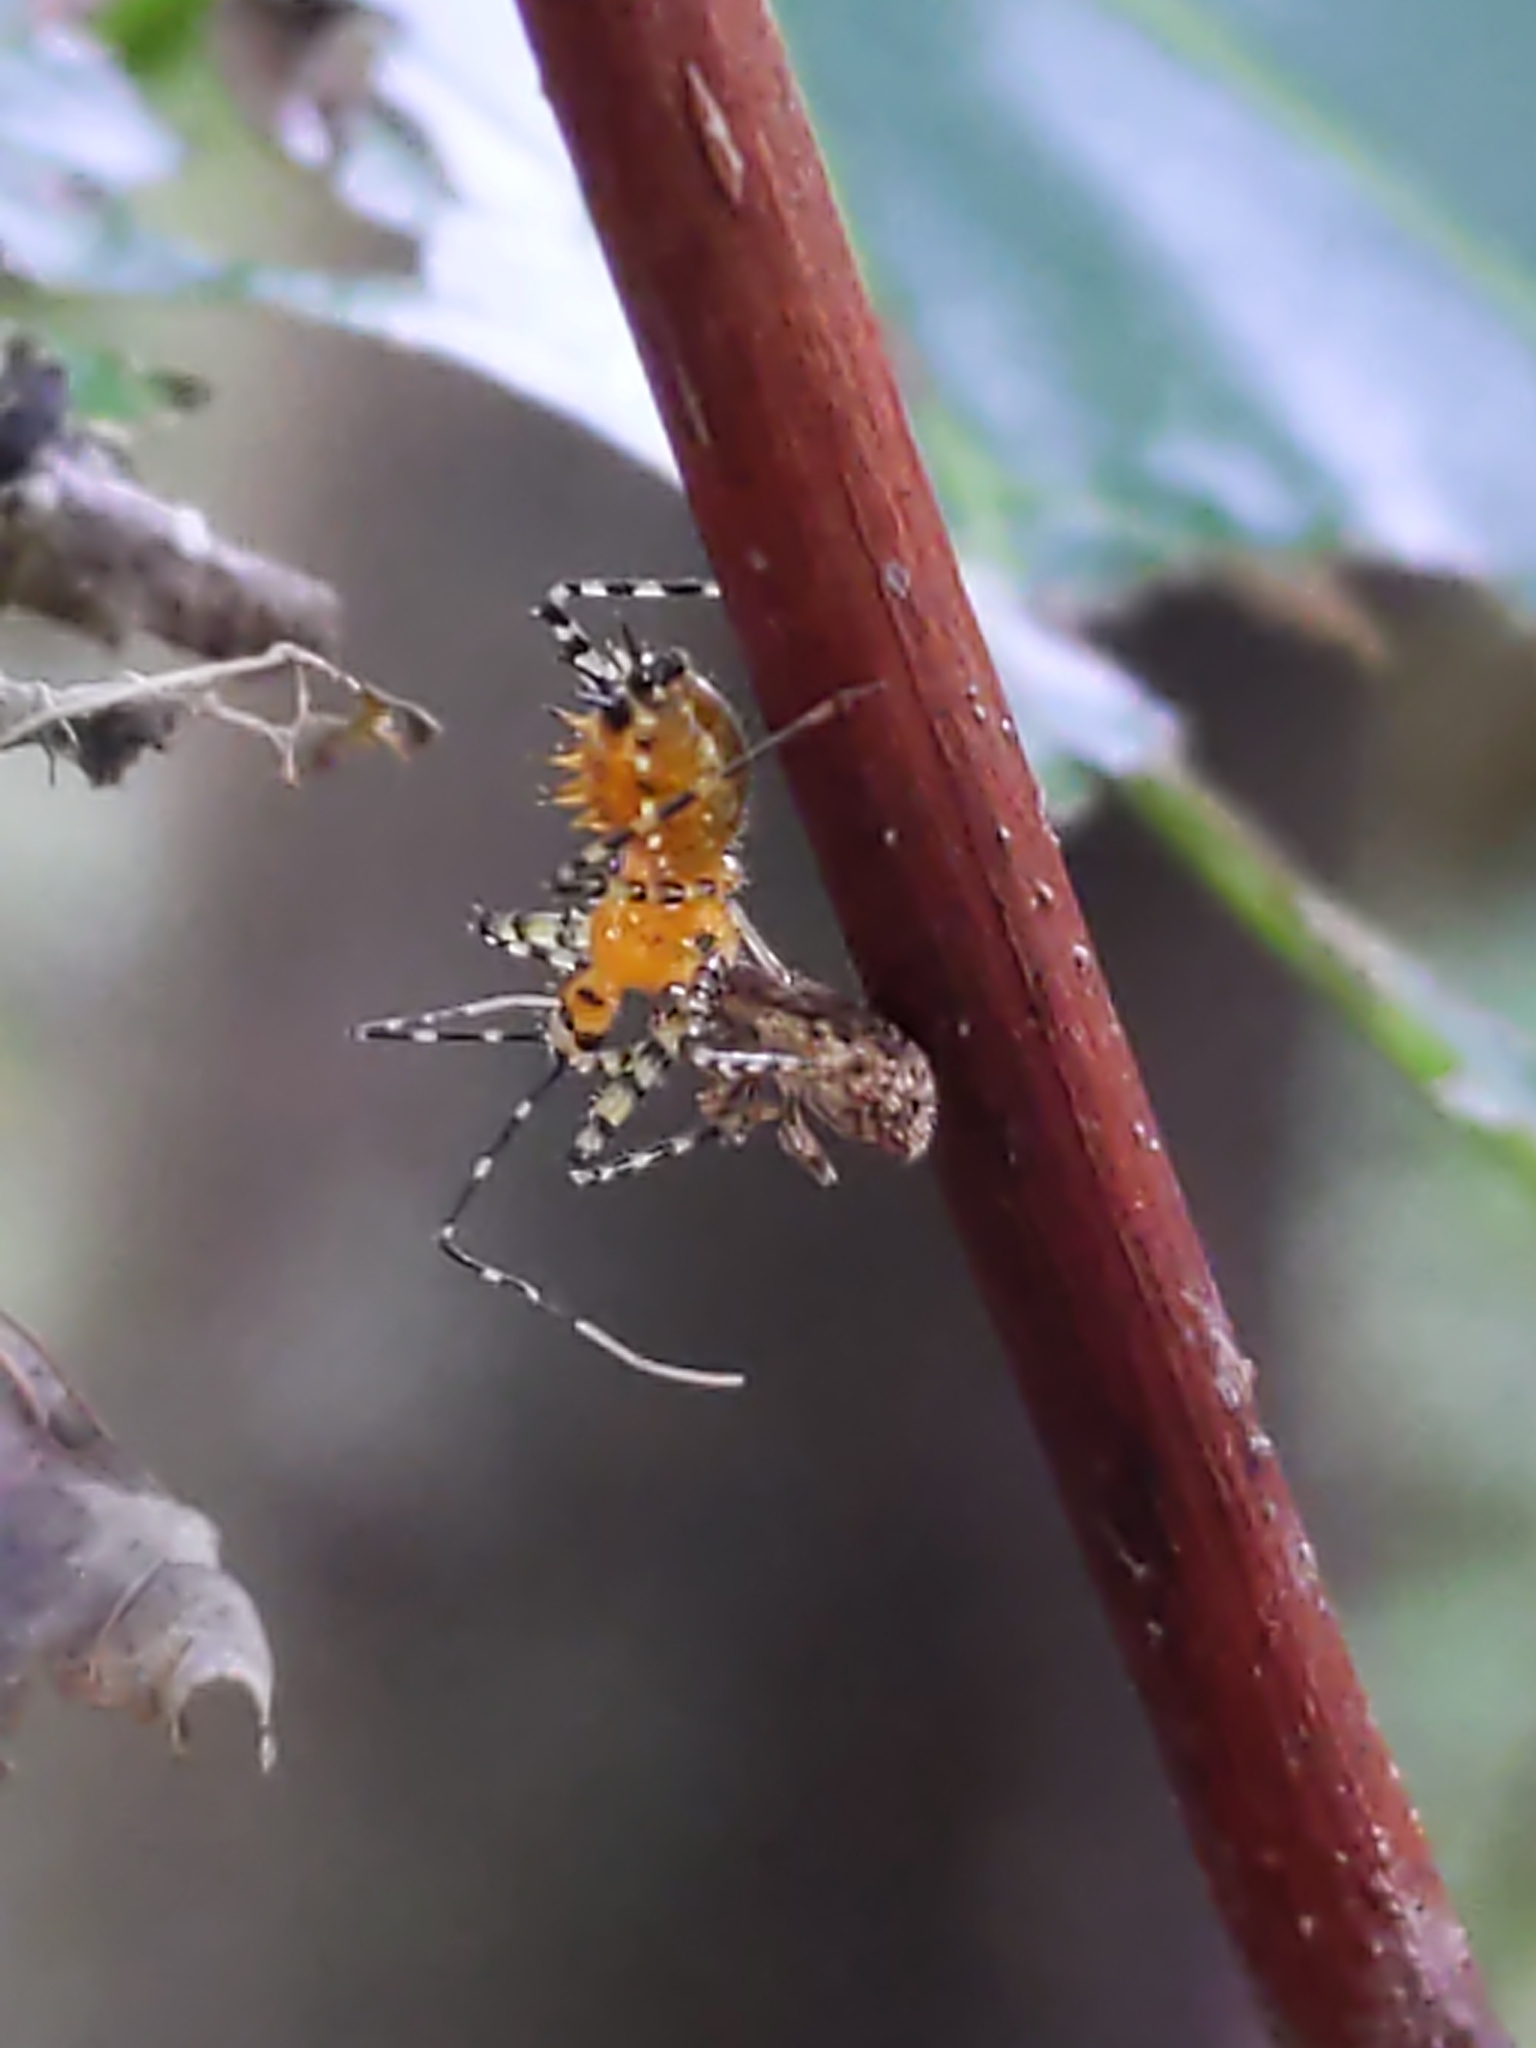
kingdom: Animalia
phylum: Arthropoda
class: Insecta
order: Coleoptera
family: Curculionidae
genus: Pseudoedophrys
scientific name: Pseudoedophrys hilleri
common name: Weevil
